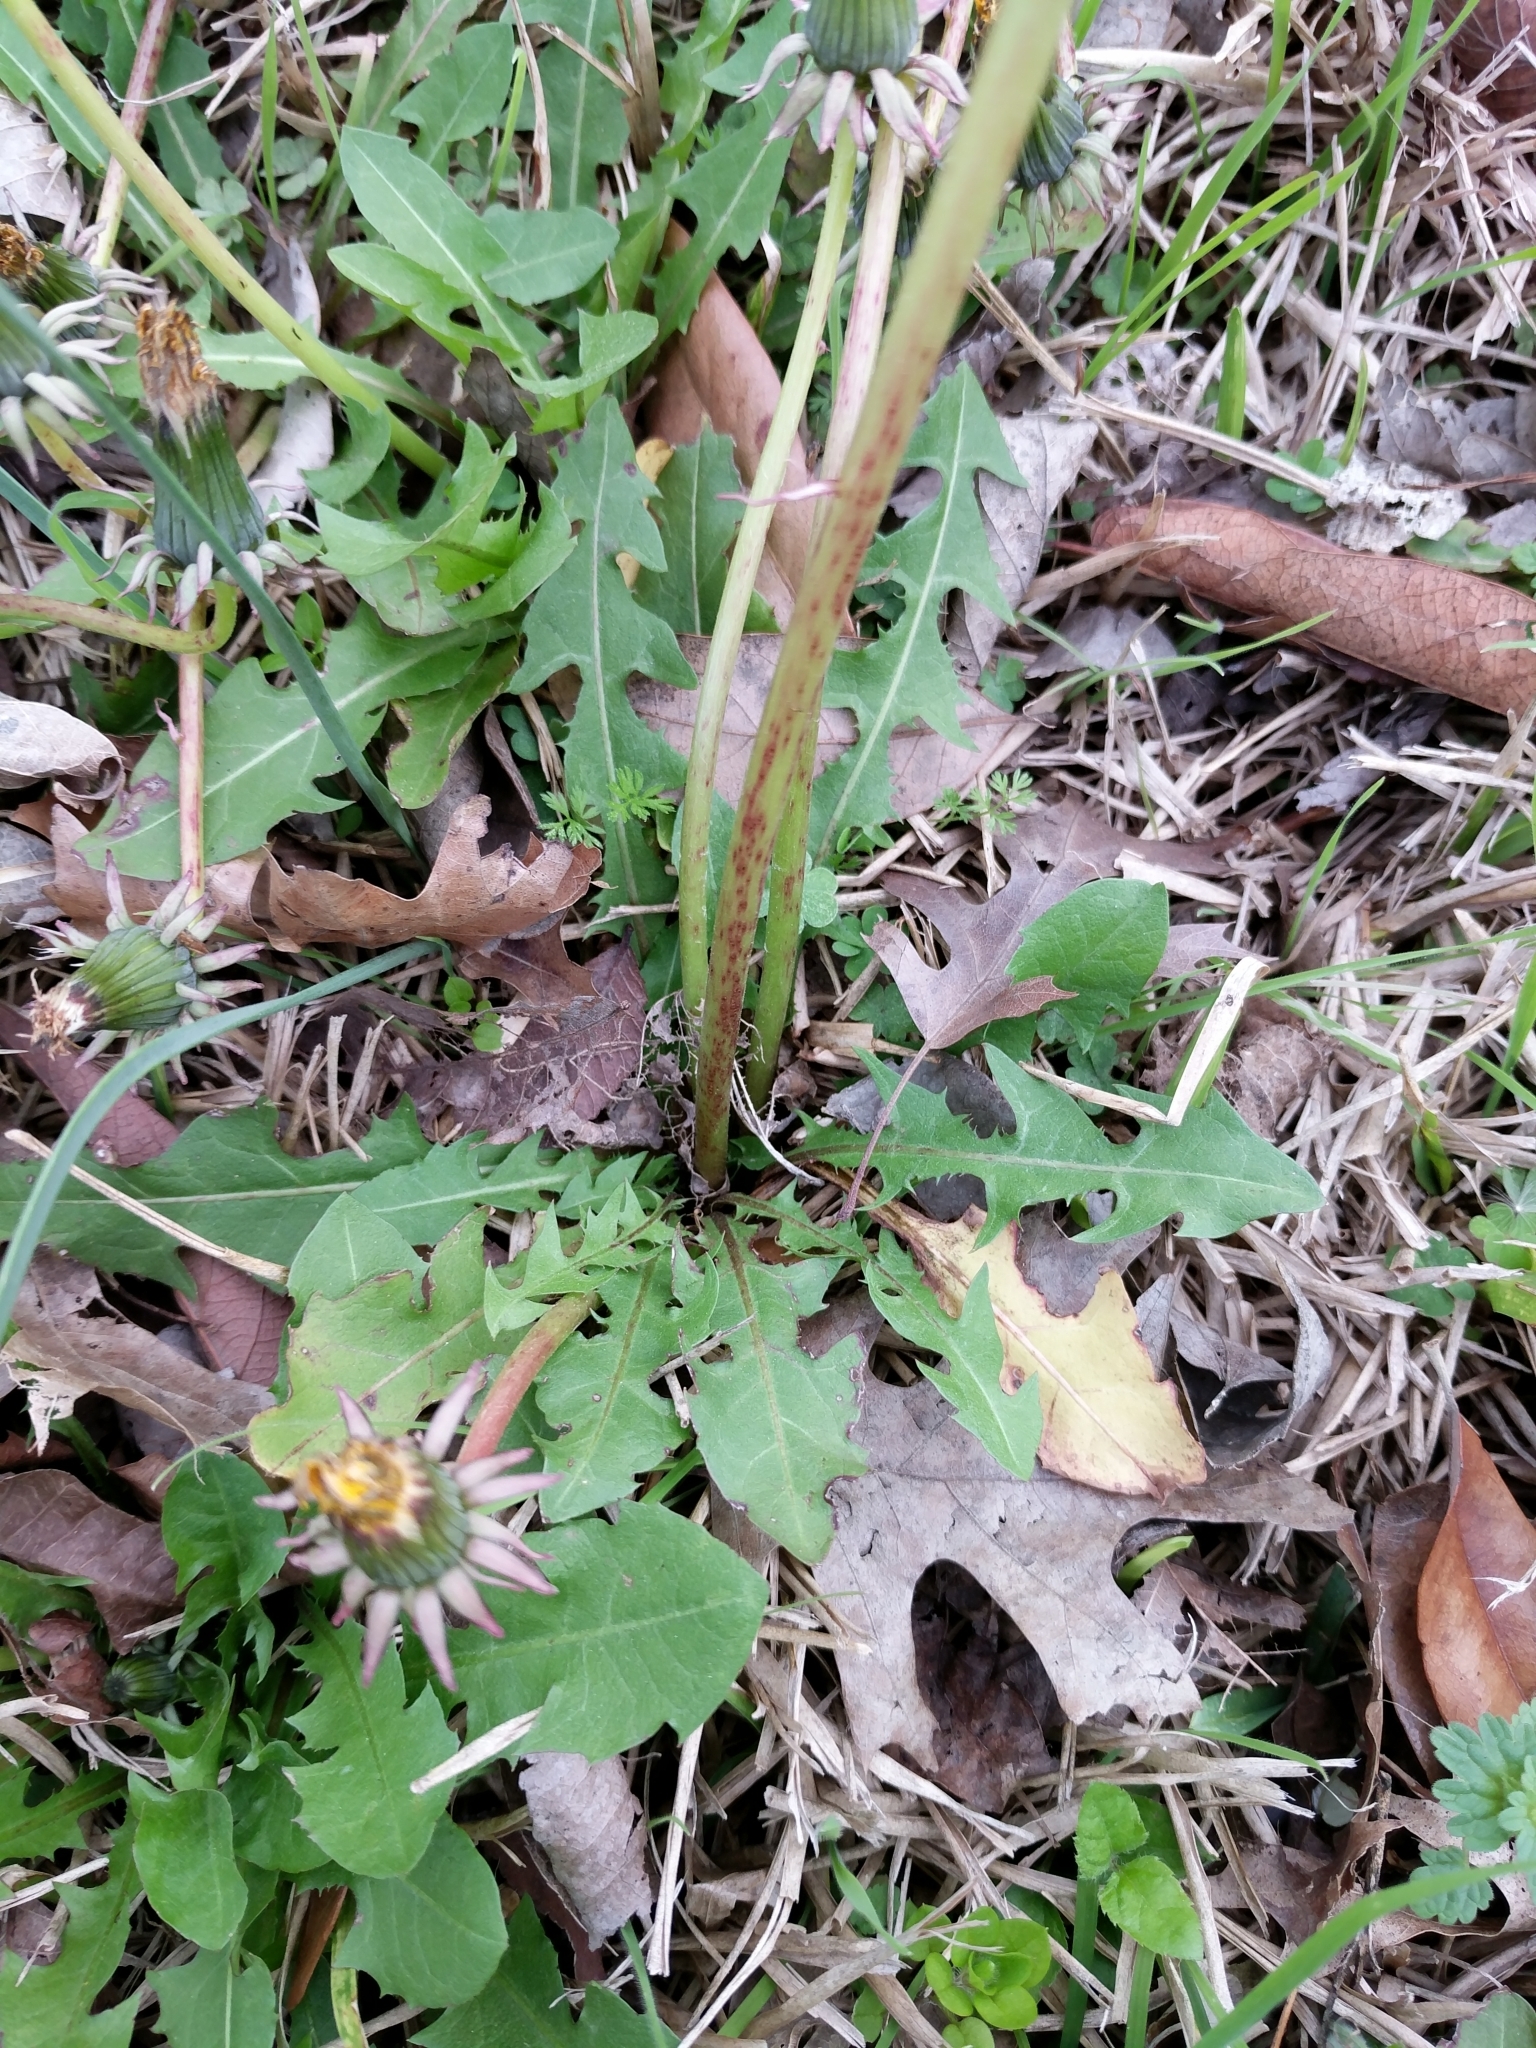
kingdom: Plantae
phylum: Tracheophyta
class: Magnoliopsida
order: Asterales
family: Asteraceae
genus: Taraxacum
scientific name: Taraxacum officinale
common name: Common dandelion
